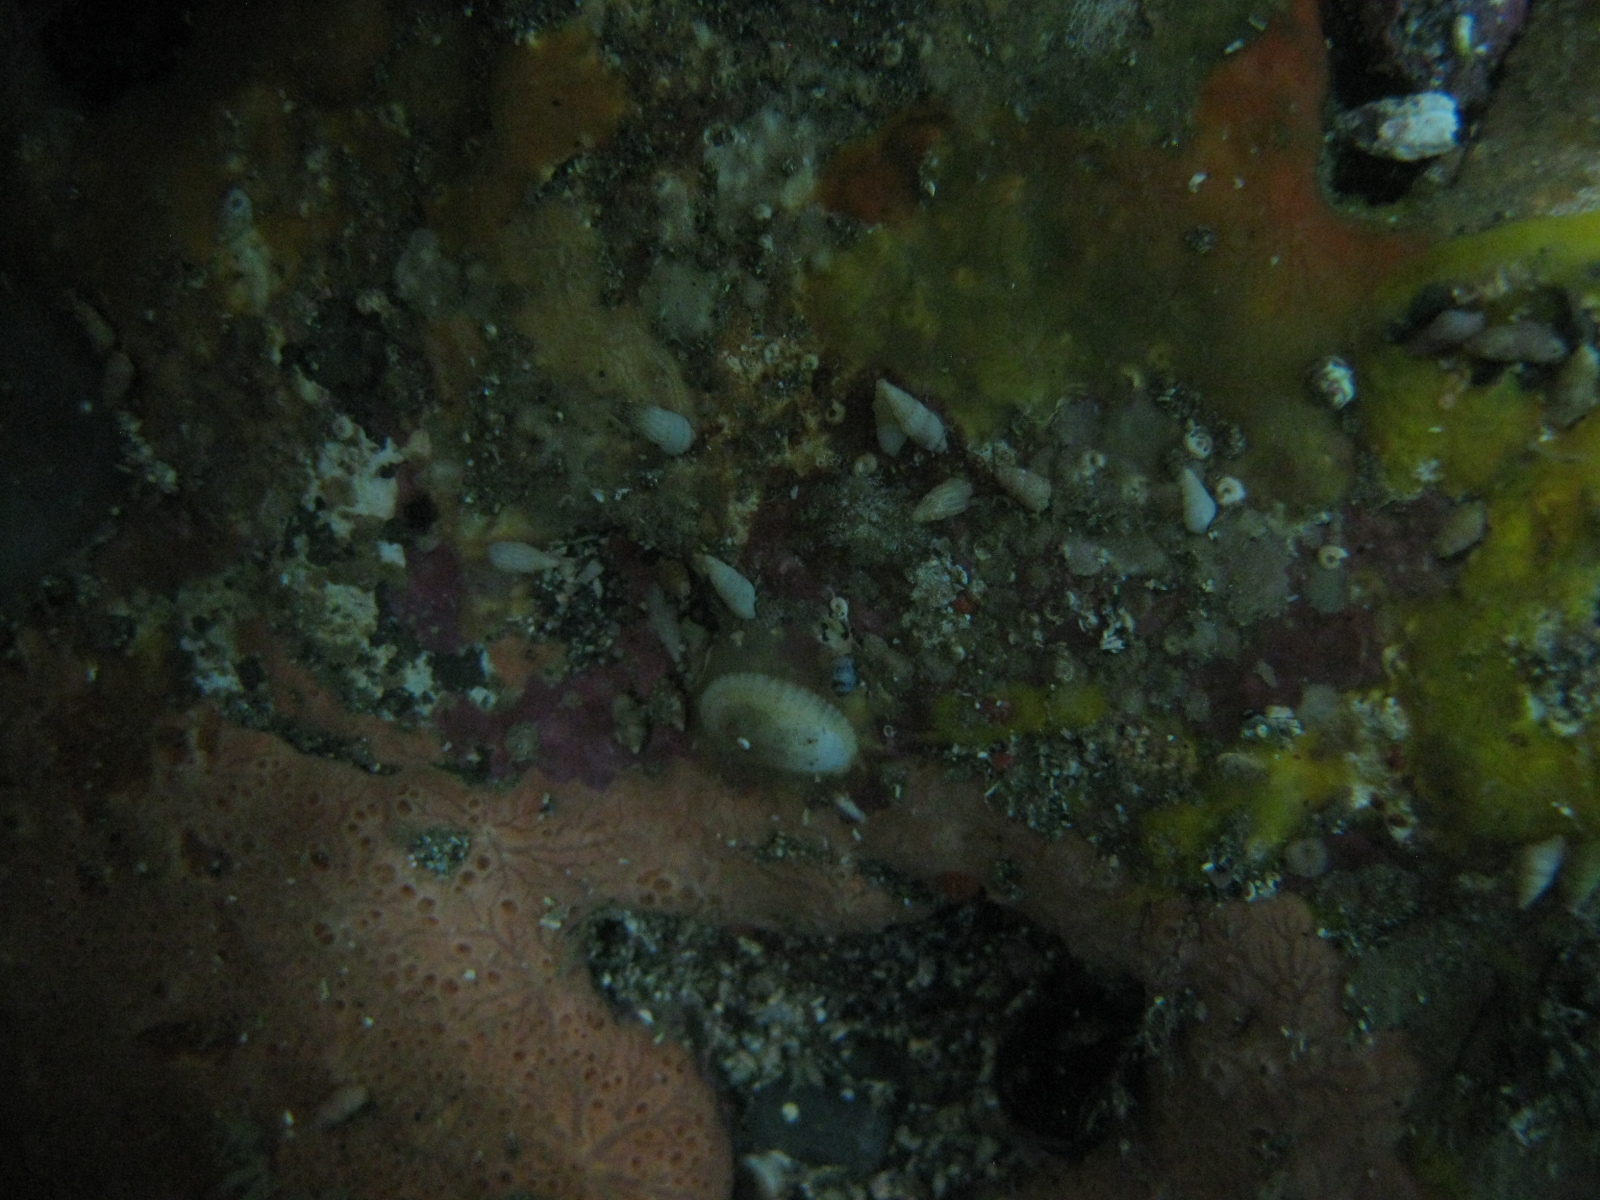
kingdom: Animalia
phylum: Mollusca
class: Gastropoda
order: Littorinimorpha
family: Rissoinidae
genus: Rissoina
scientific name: Rissoina chathamensis
